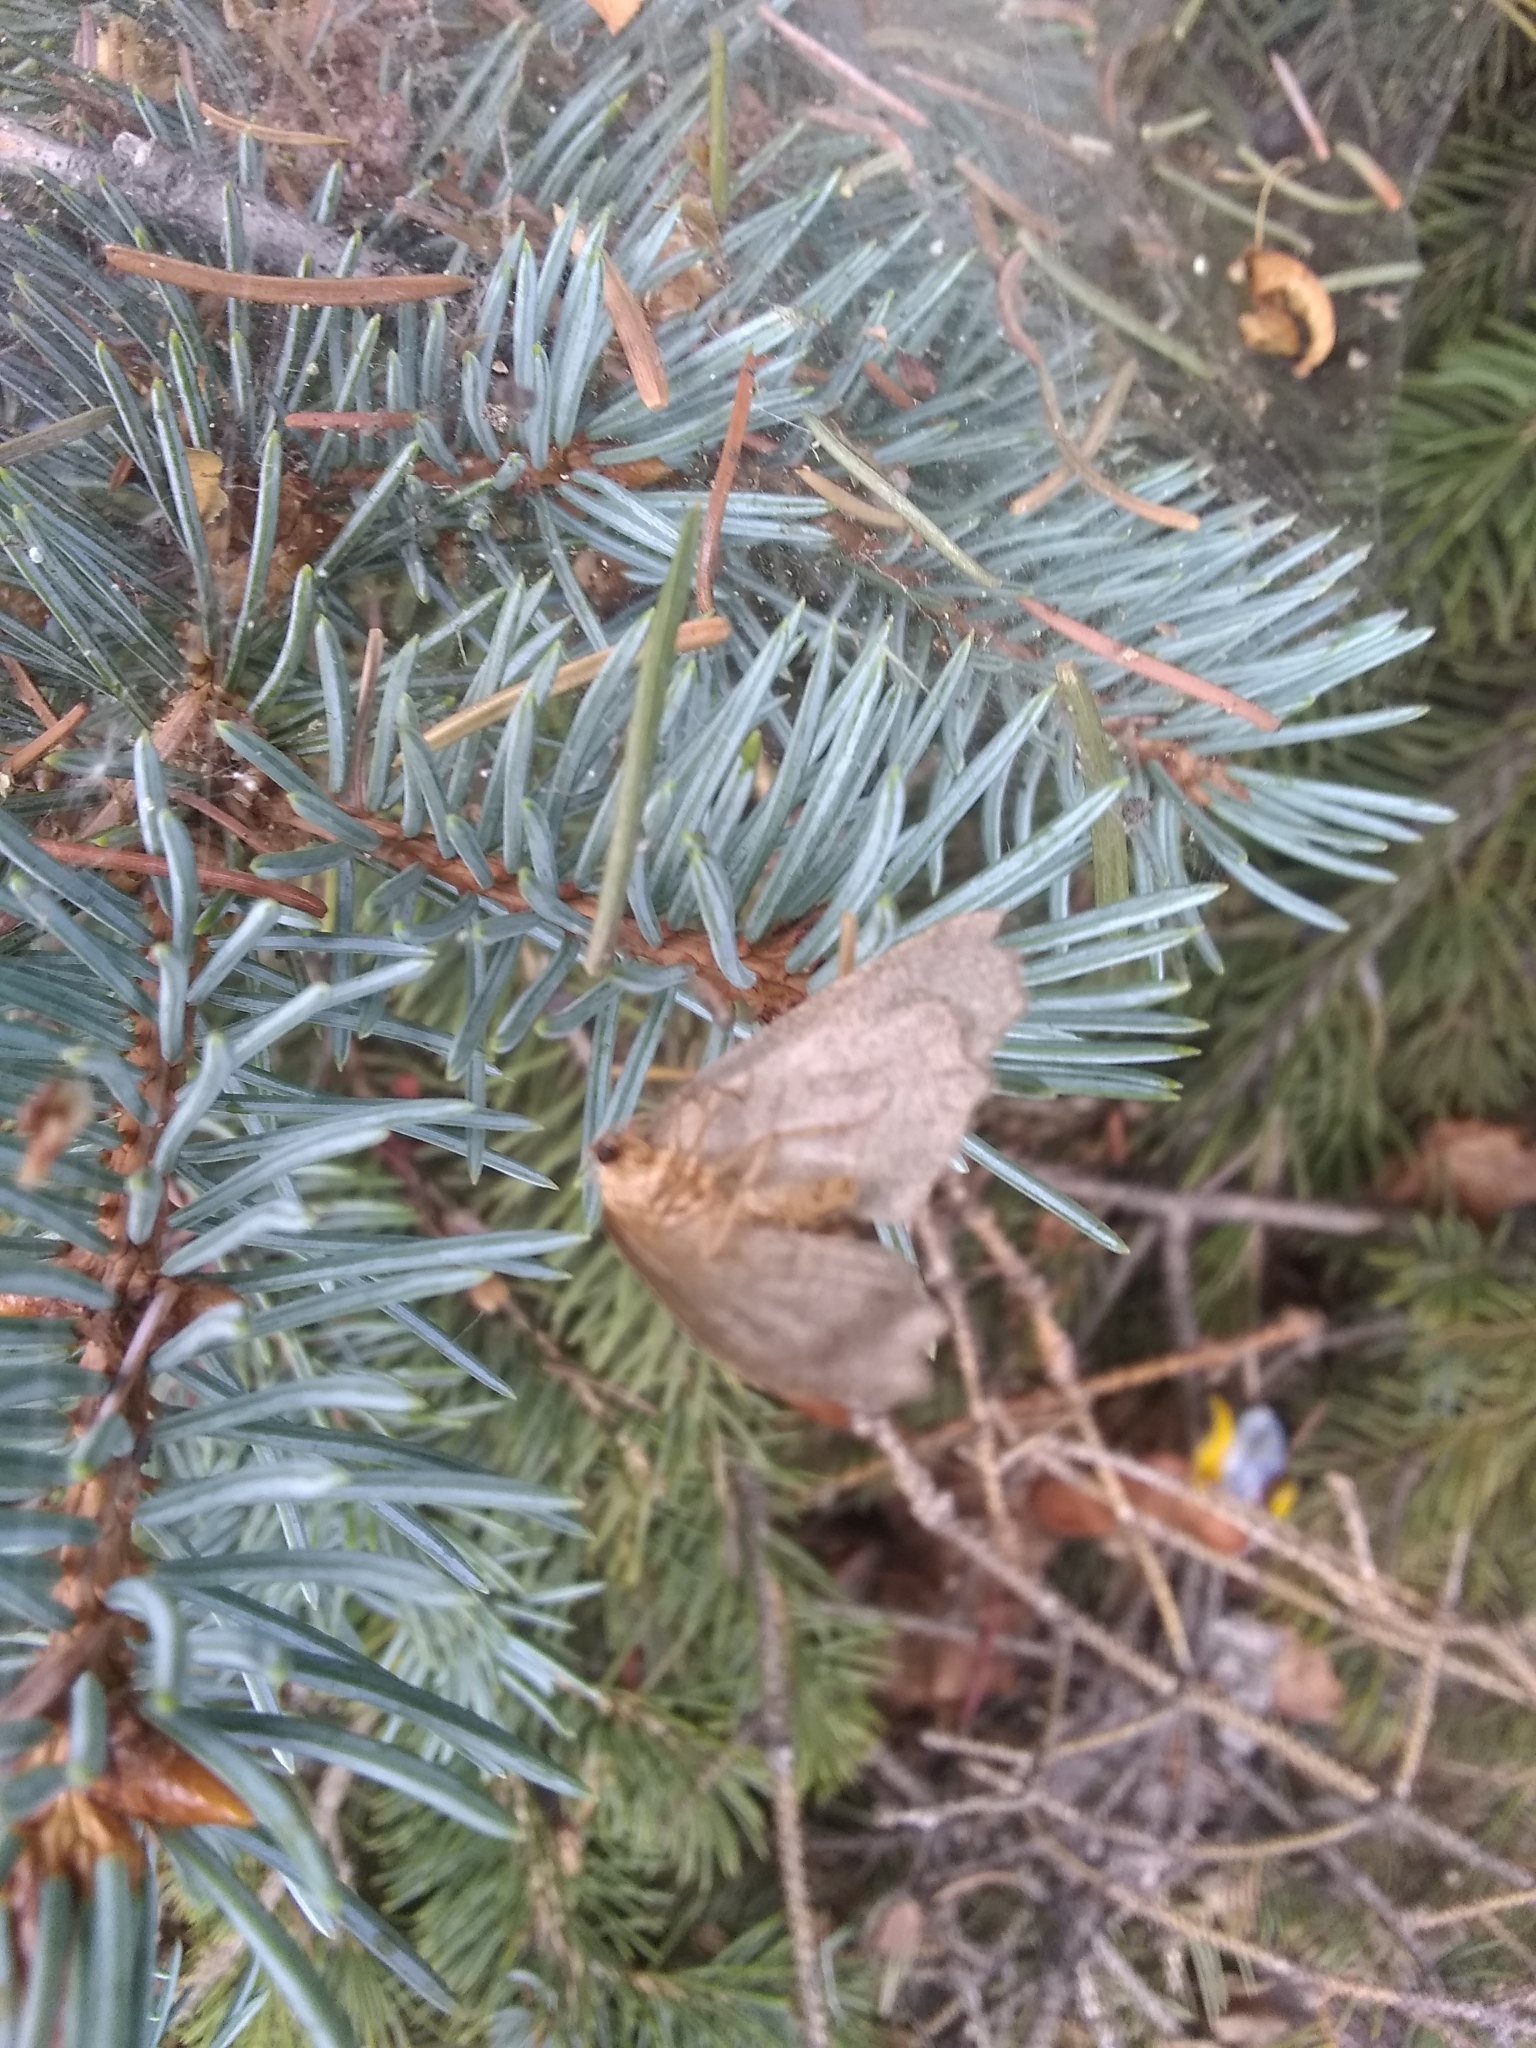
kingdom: Animalia
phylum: Arthropoda
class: Insecta
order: Lepidoptera
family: Geometridae
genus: Lambdina
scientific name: Lambdina fiscellaria
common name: Hemlock looper
